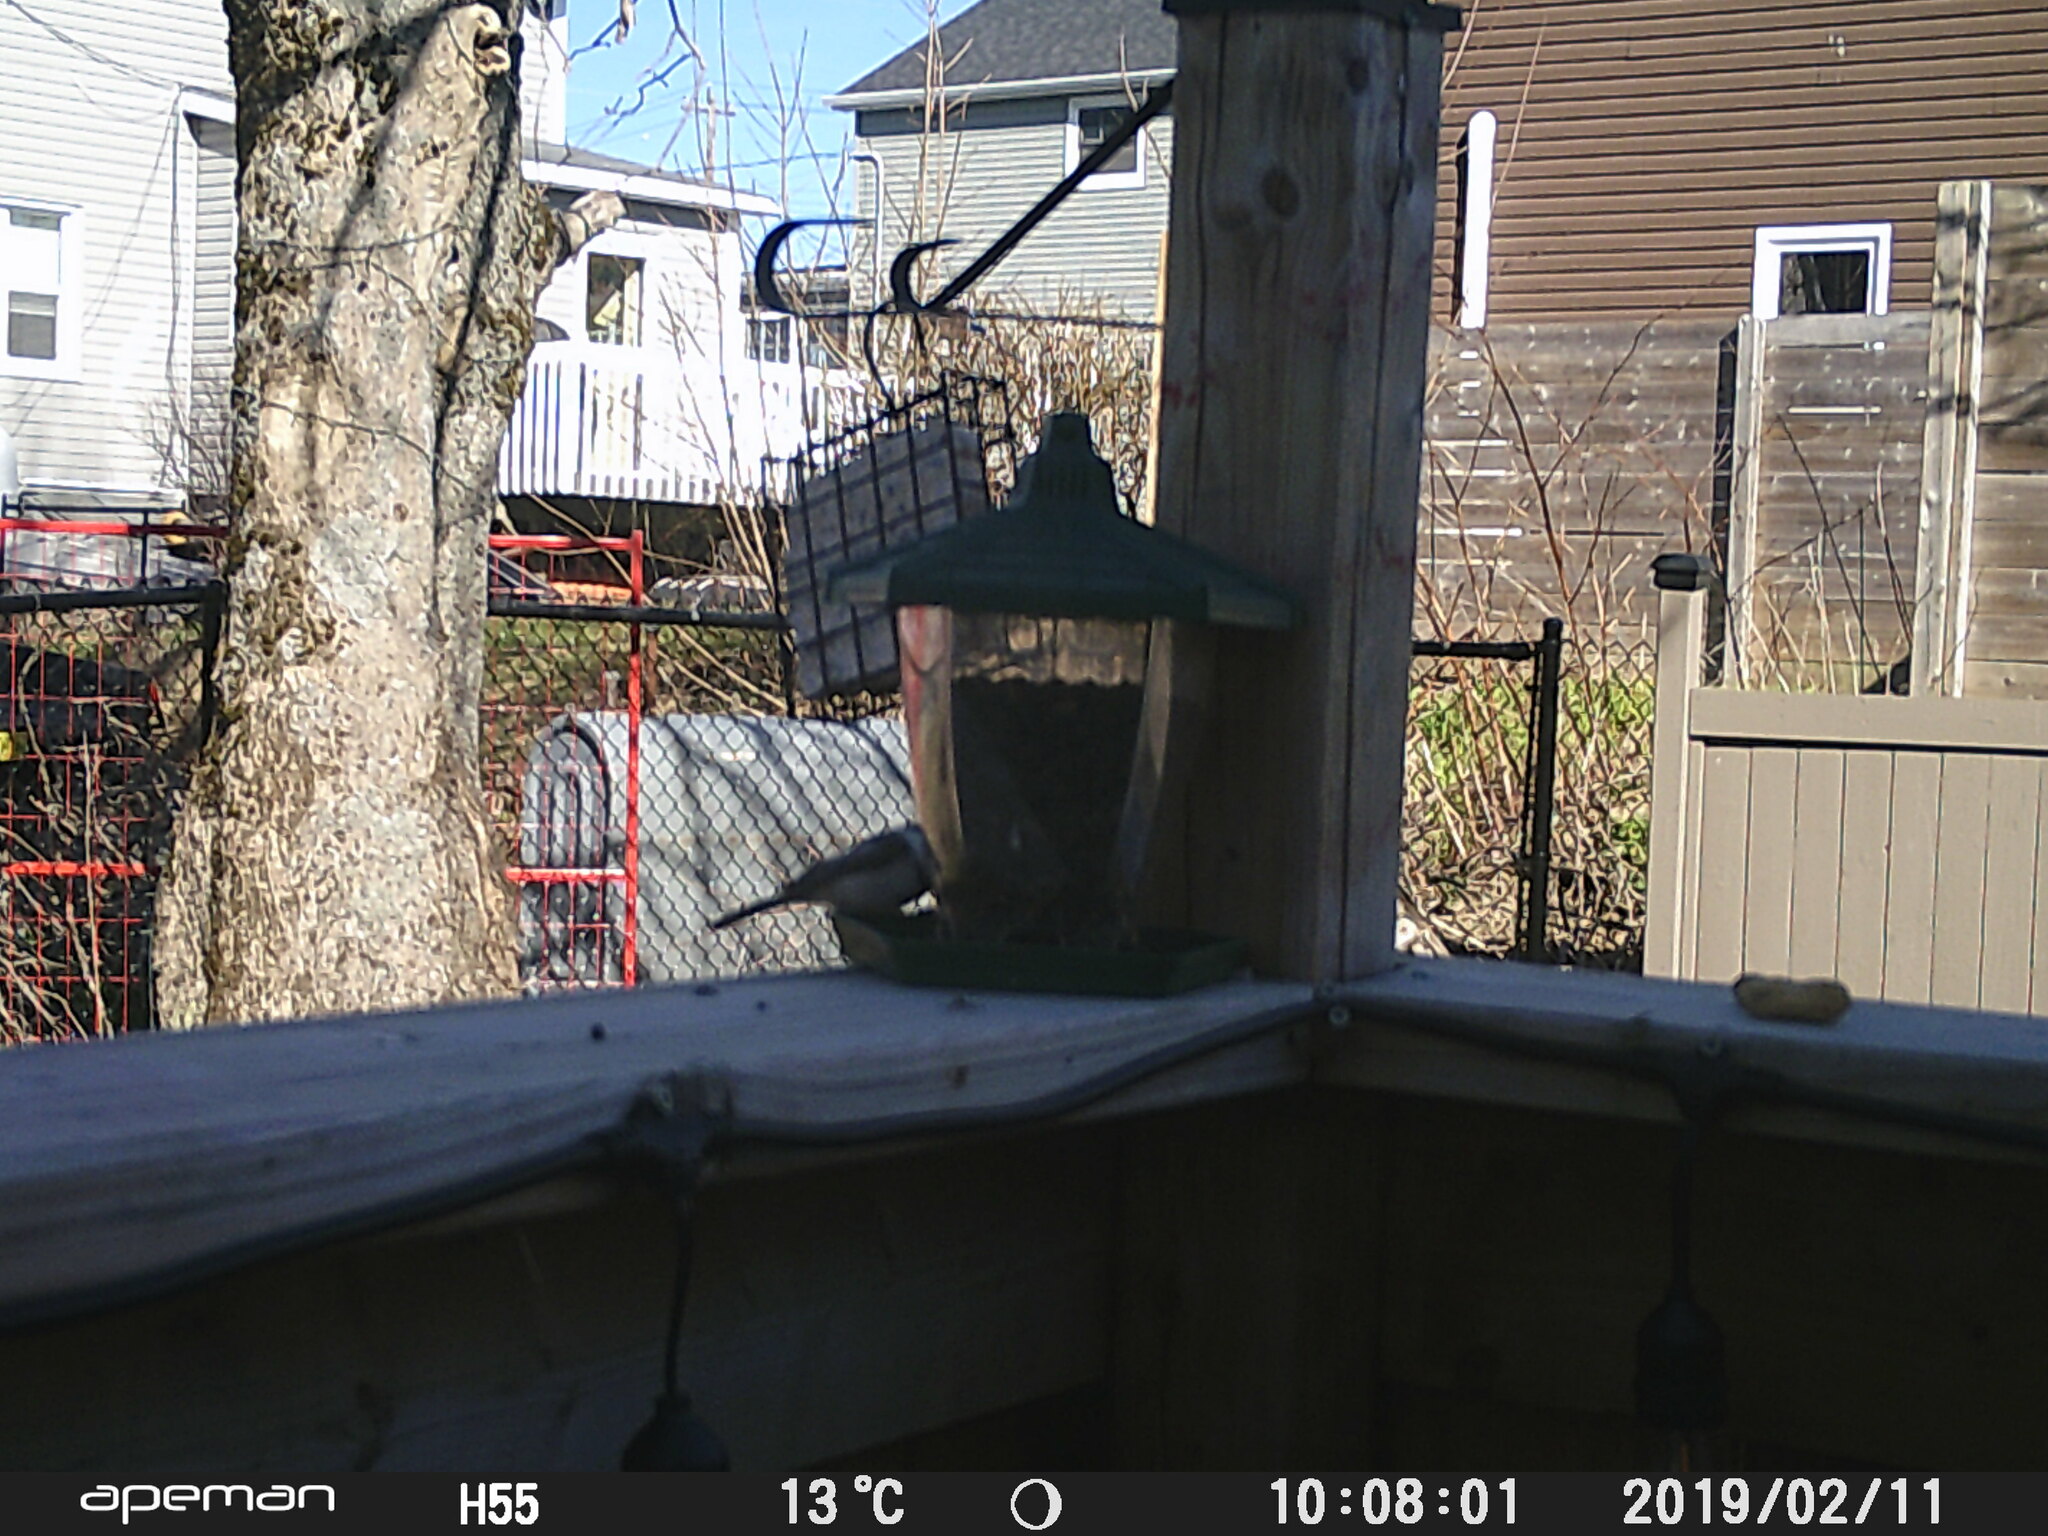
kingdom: Animalia
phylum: Chordata
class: Aves
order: Passeriformes
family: Paridae
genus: Poecile
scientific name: Poecile atricapillus
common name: Black-capped chickadee
